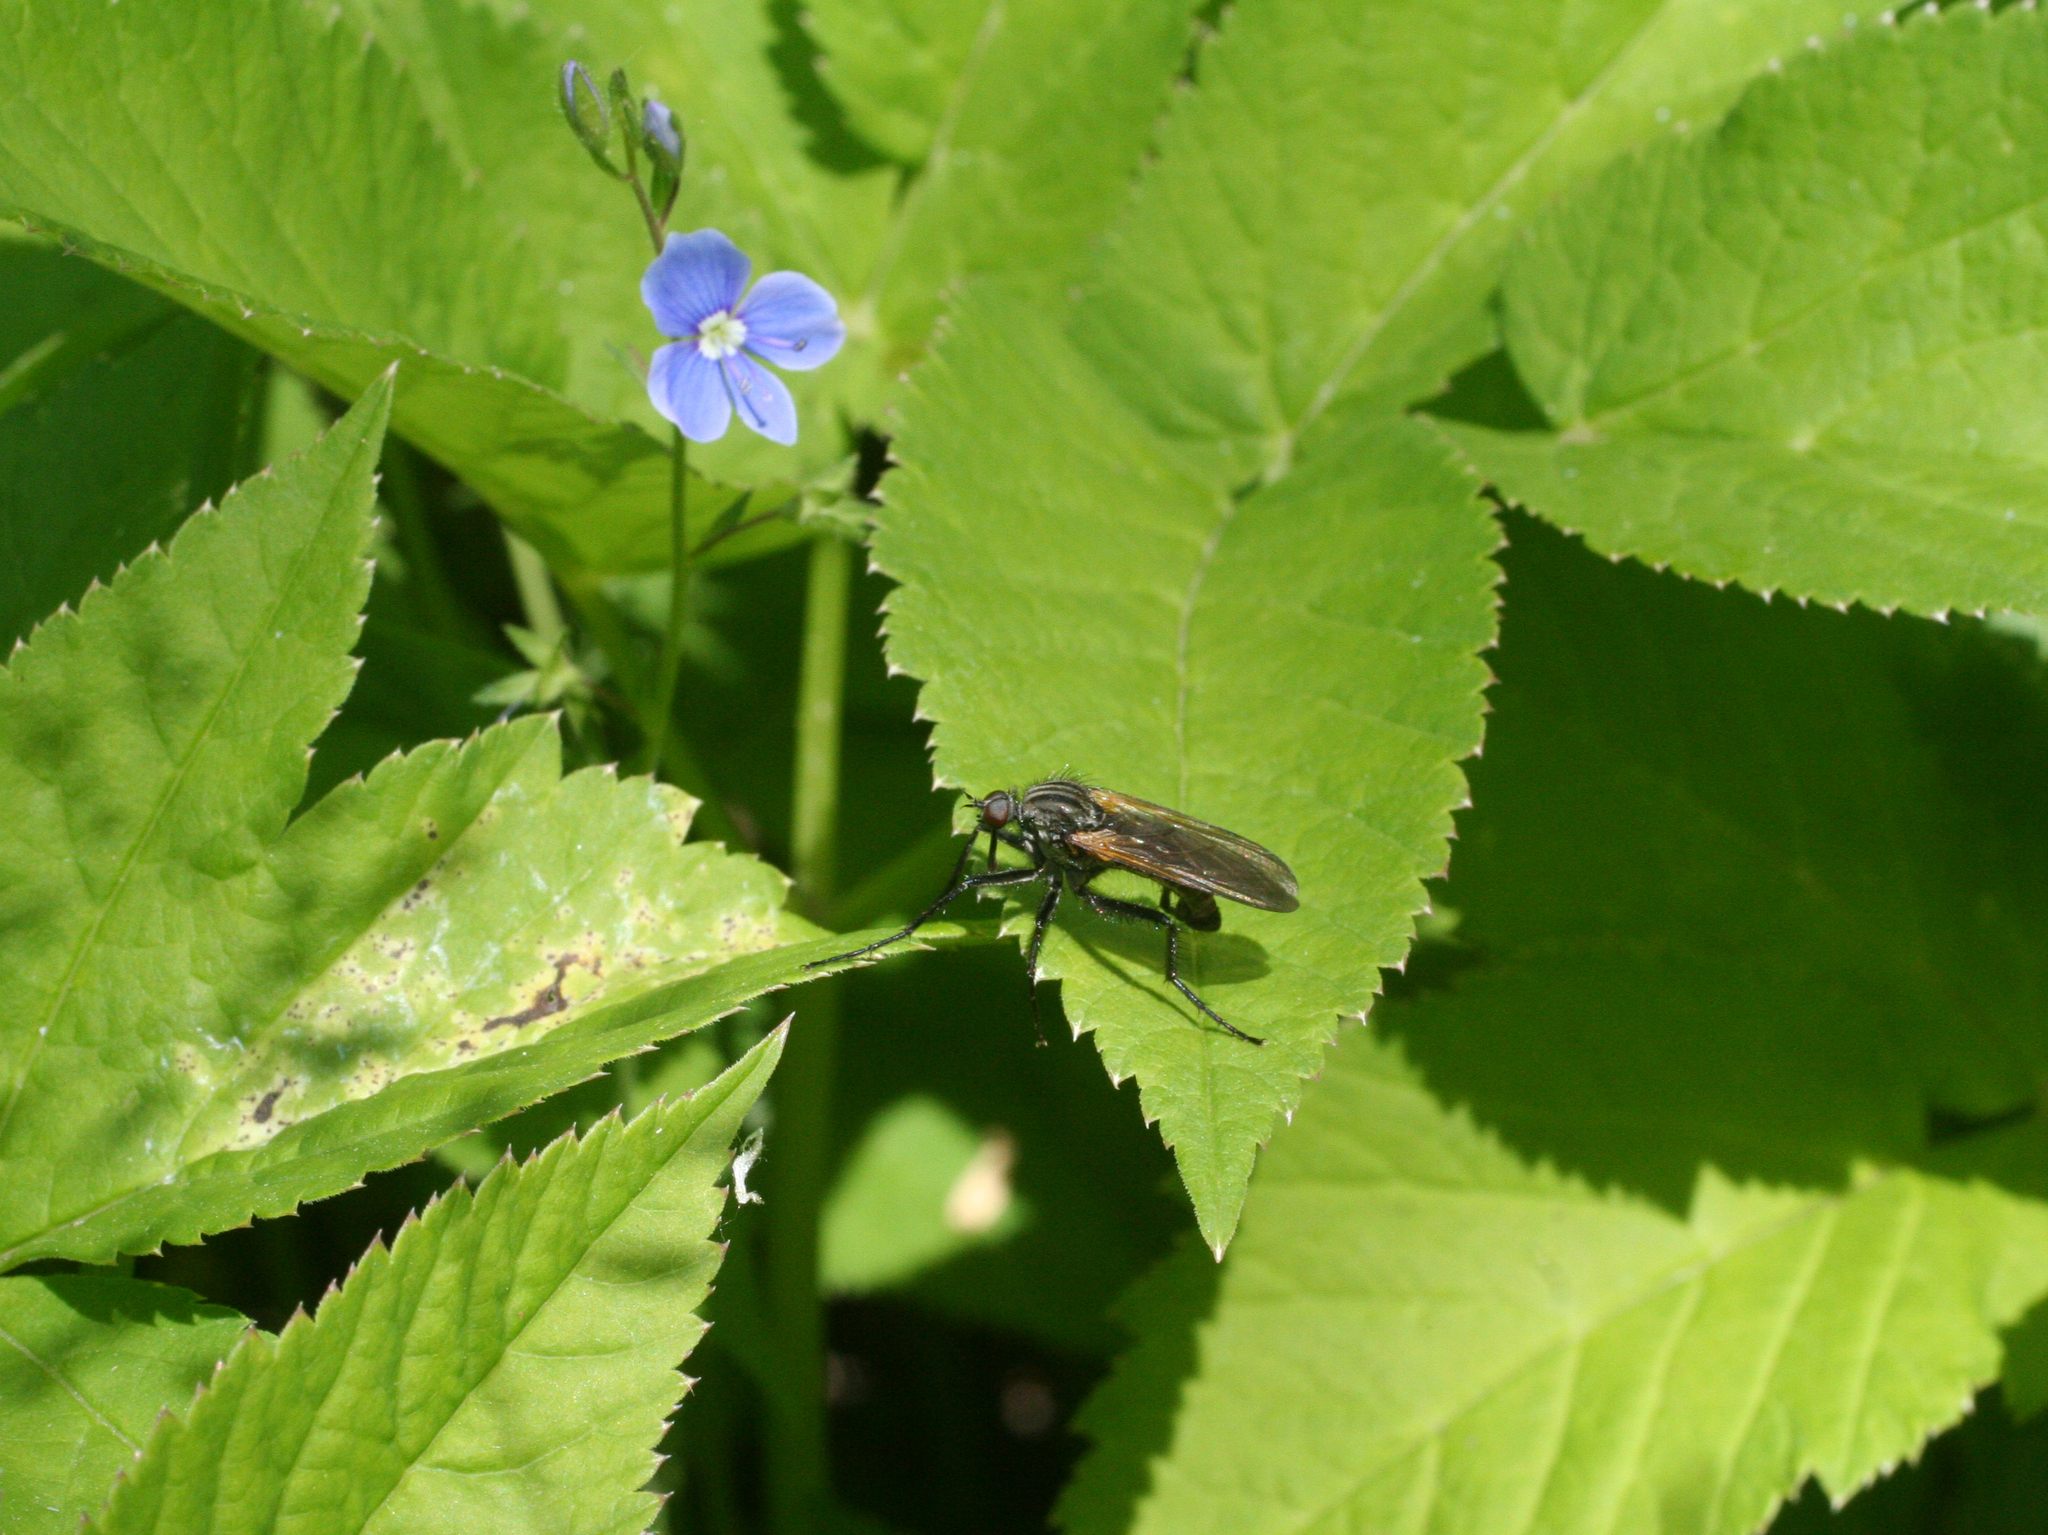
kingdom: Plantae
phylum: Tracheophyta
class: Magnoliopsida
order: Lamiales
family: Plantaginaceae
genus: Veronica
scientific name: Veronica chamaedrys
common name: Germander speedwell
